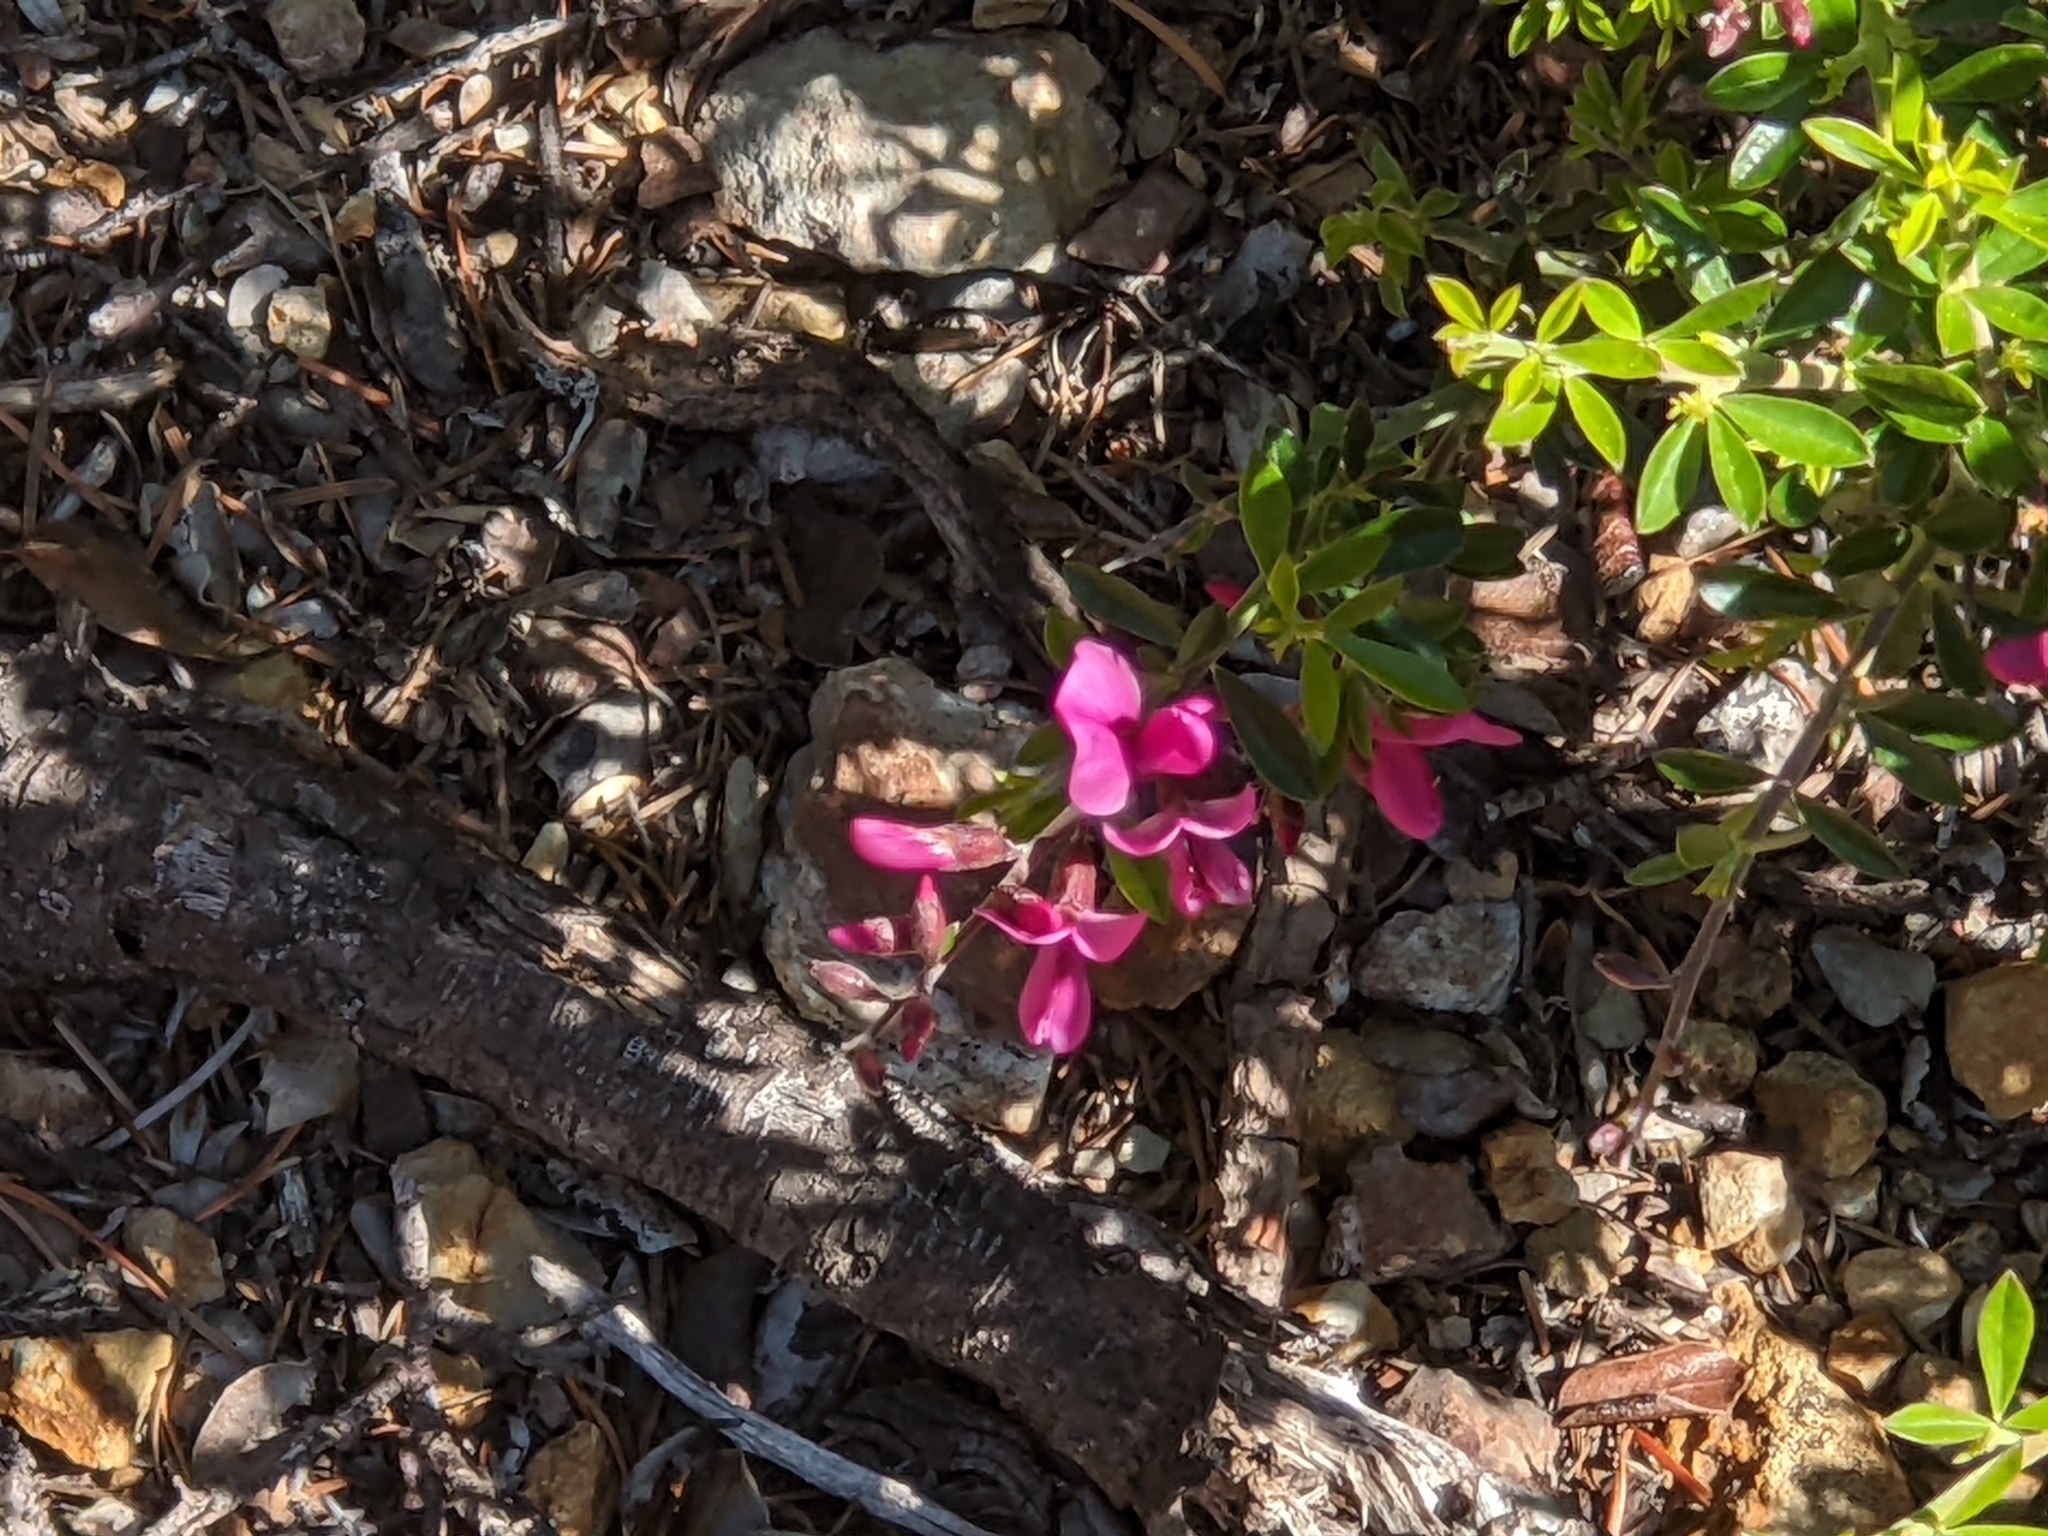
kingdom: Plantae
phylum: Tracheophyta
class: Magnoliopsida
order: Fabales
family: Fabaceae
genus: Pickeringia
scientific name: Pickeringia montana
